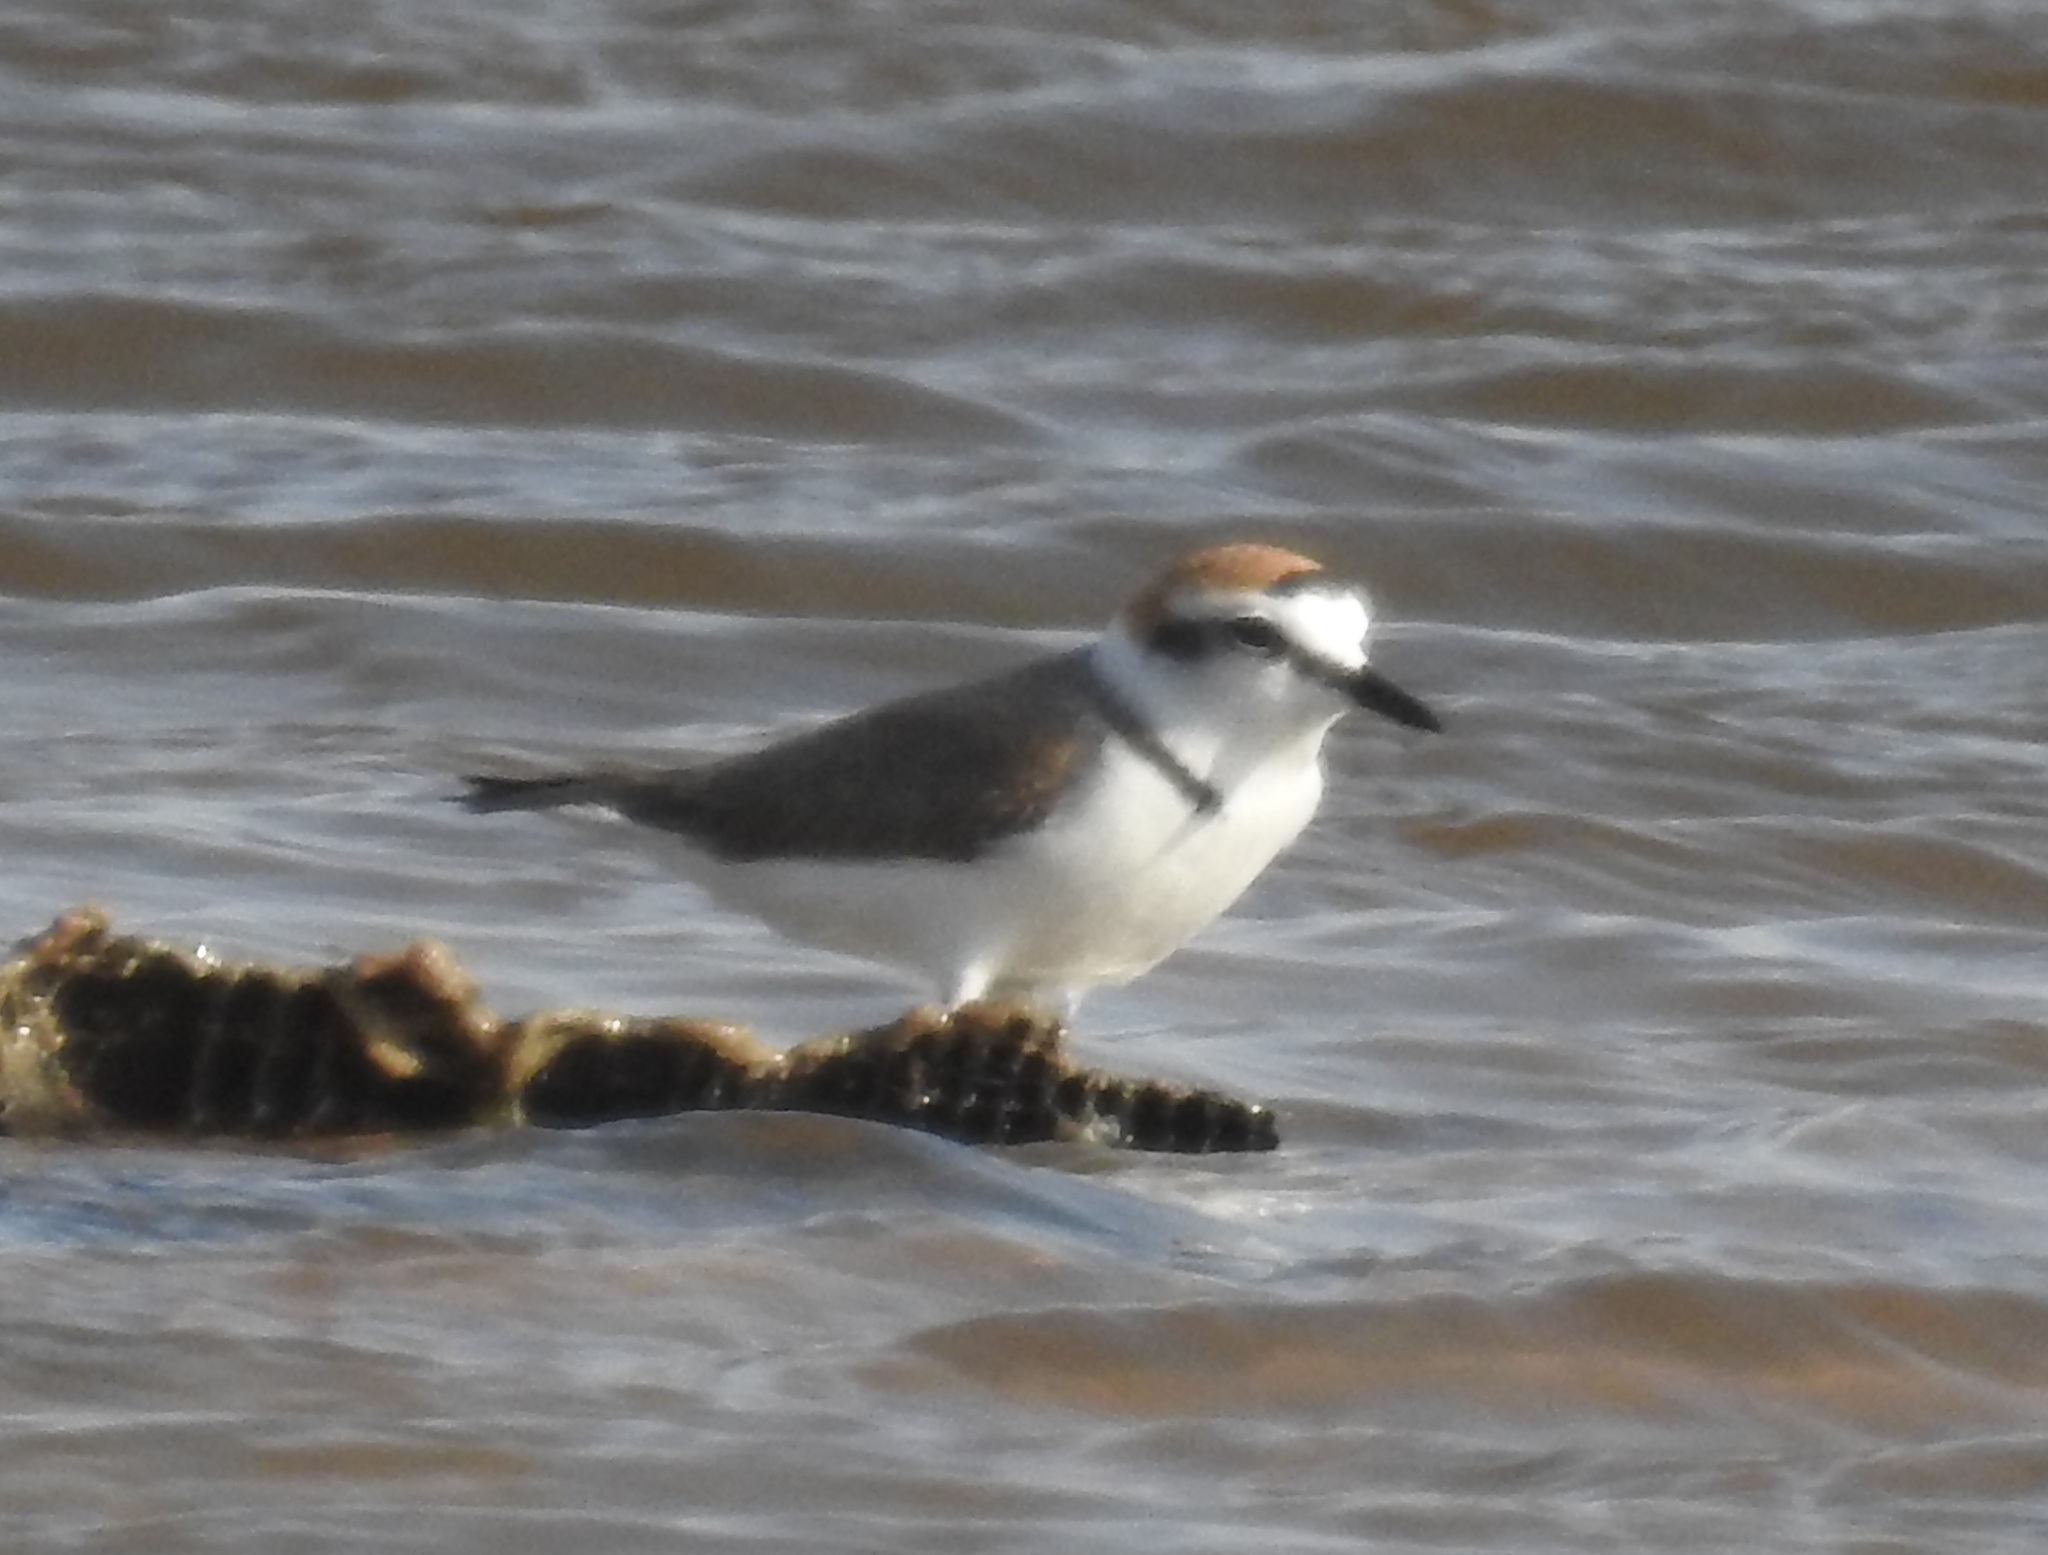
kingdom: Animalia
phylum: Chordata
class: Aves
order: Charadriiformes
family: Charadriidae
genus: Charadrius
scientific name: Charadrius alexandrinus
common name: Kentish plover
